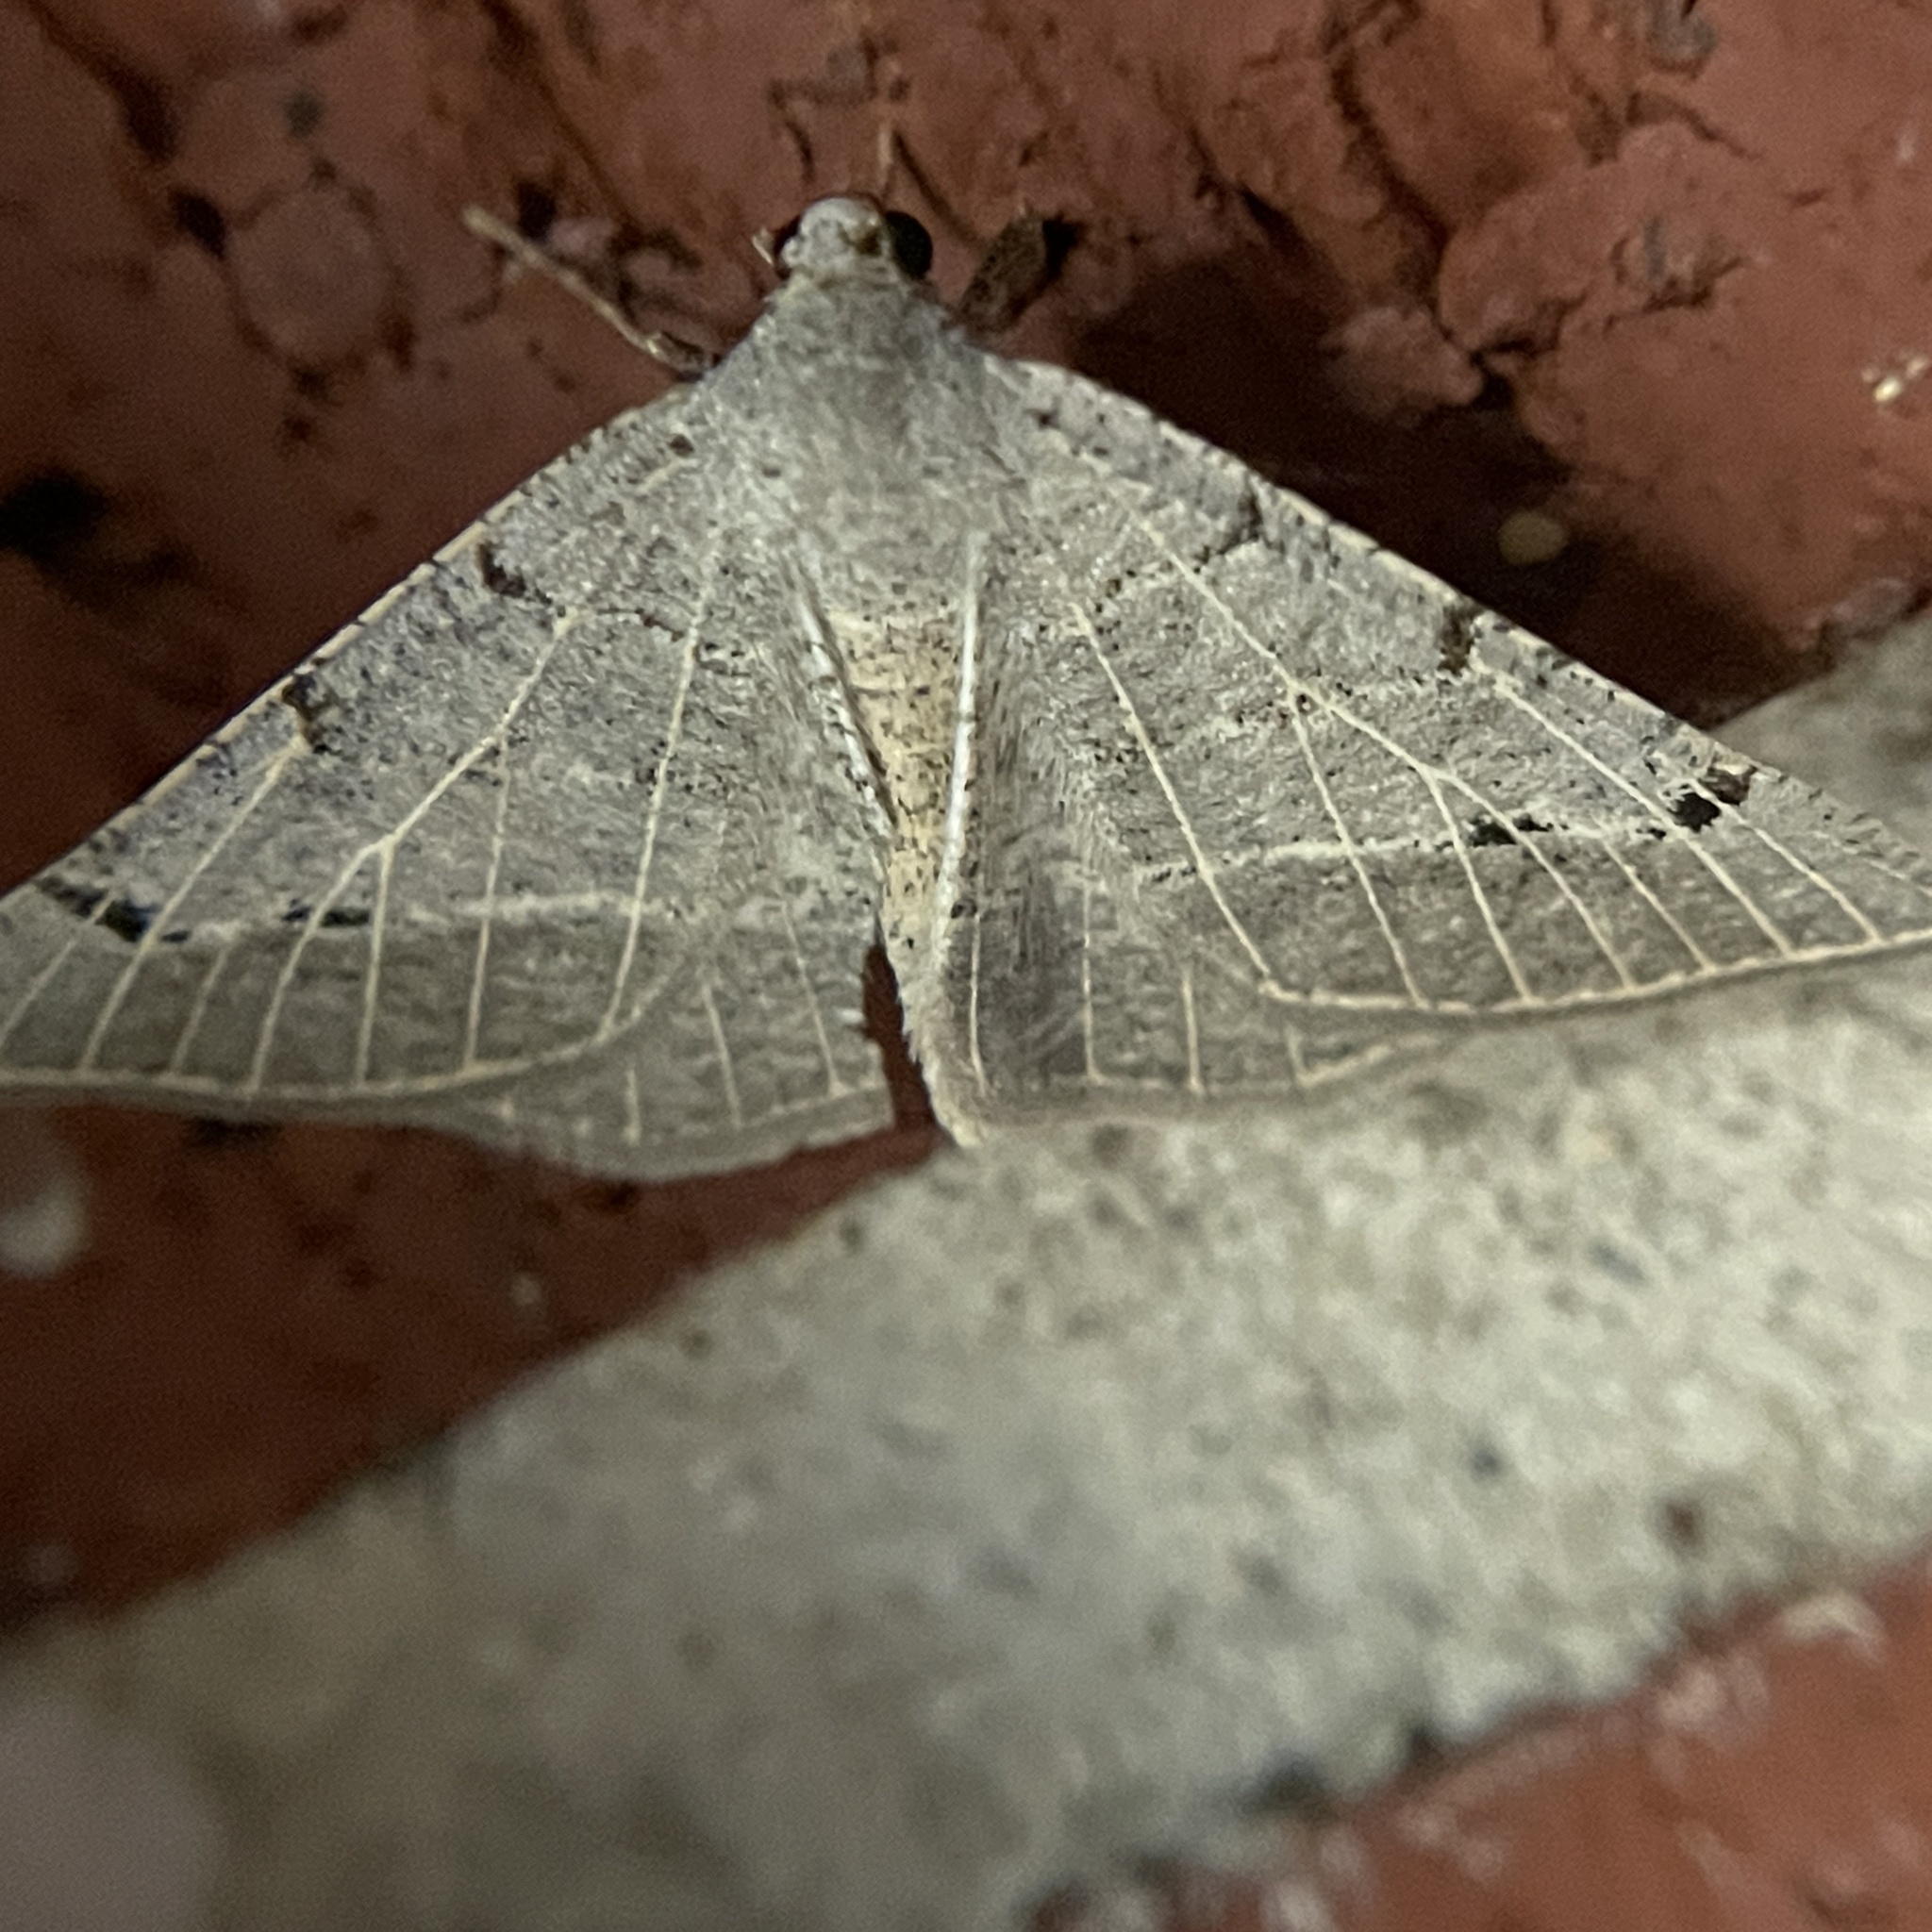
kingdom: Animalia
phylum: Arthropoda
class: Insecta
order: Lepidoptera
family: Geometridae
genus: Isturgia
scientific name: Isturgia dislocaria
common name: Pale-viened enconista
